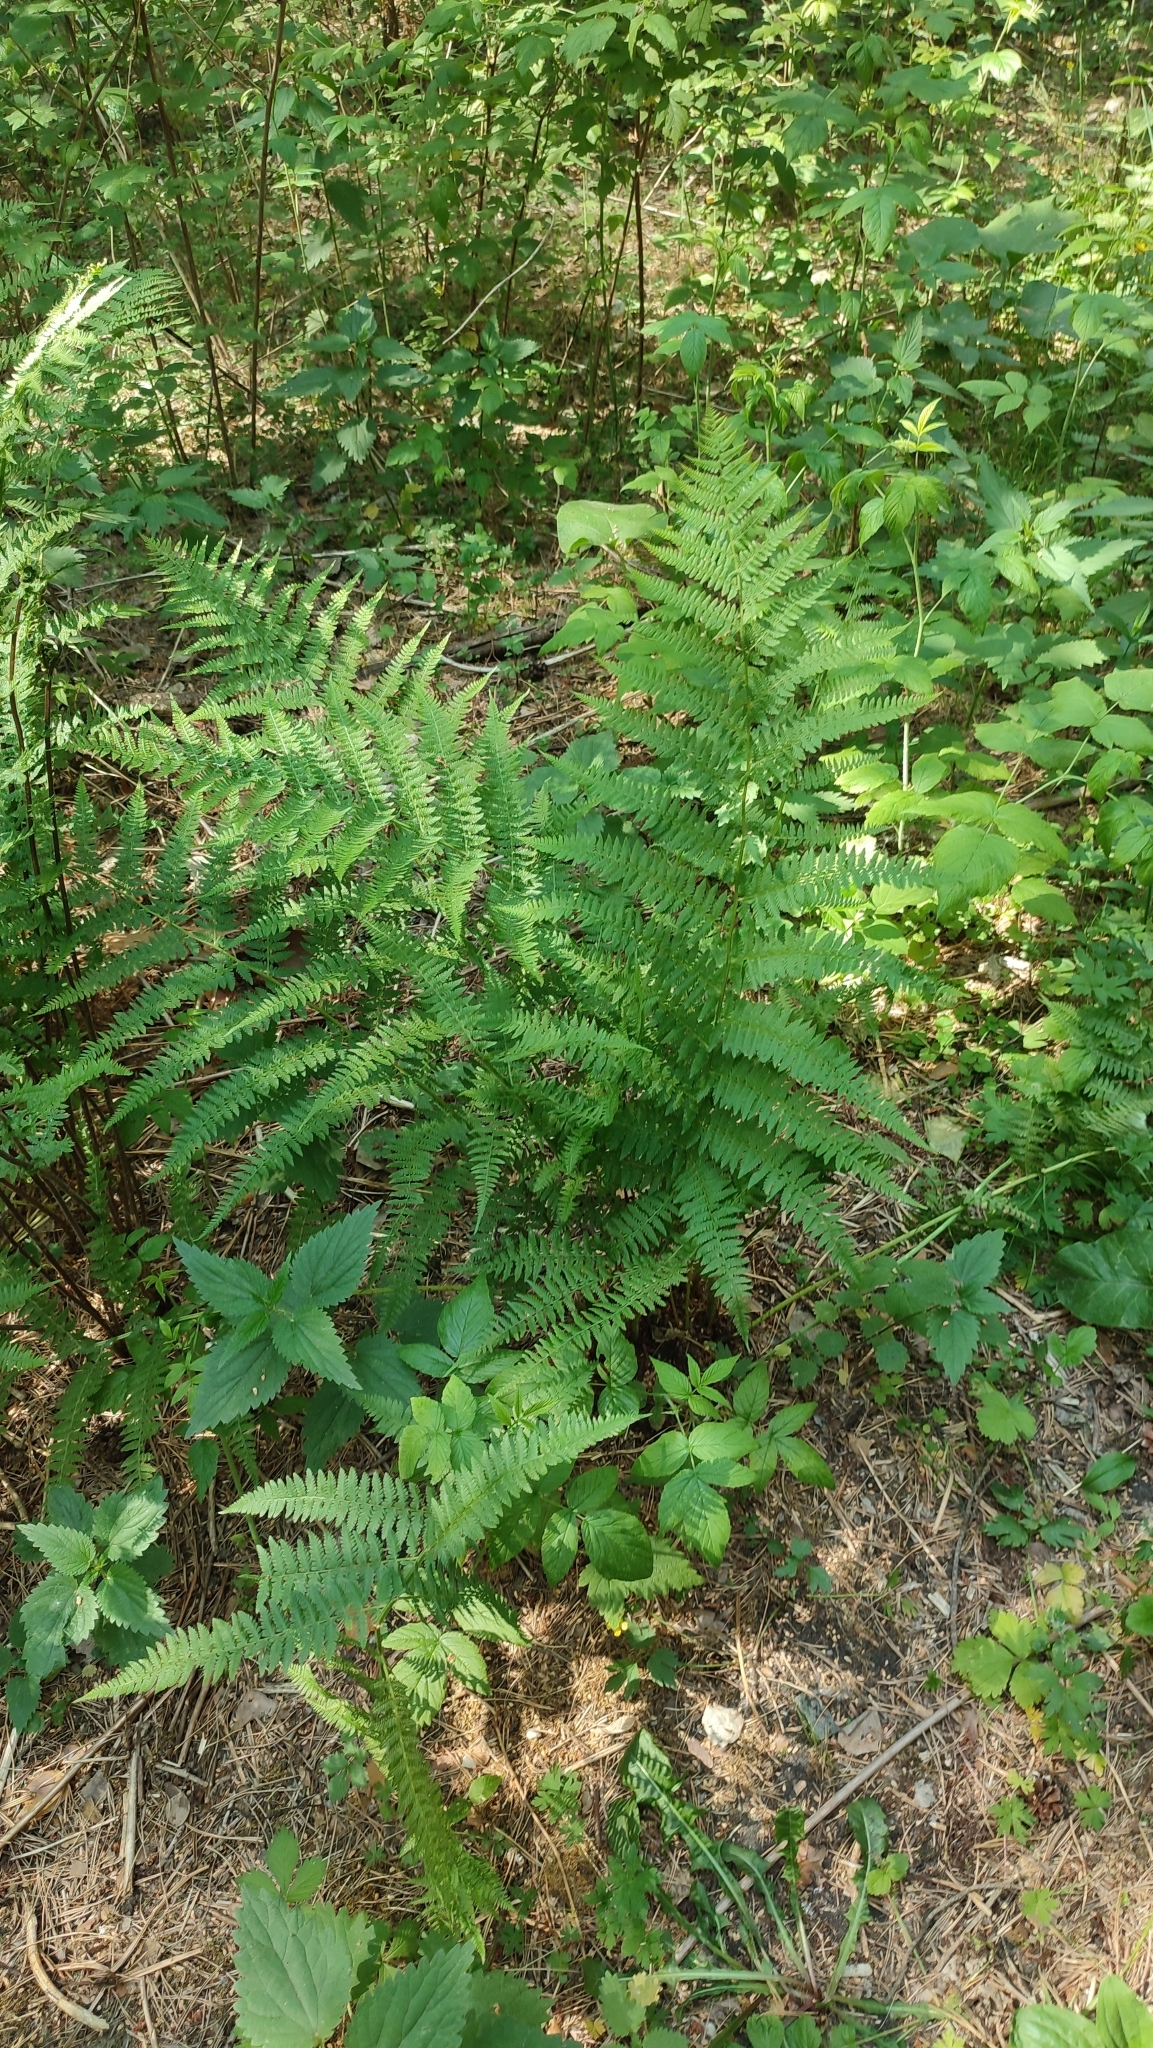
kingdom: Plantae
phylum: Tracheophyta
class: Polypodiopsida
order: Polypodiales
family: Athyriaceae
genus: Athyrium
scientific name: Athyrium filix-femina
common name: Lady fern
